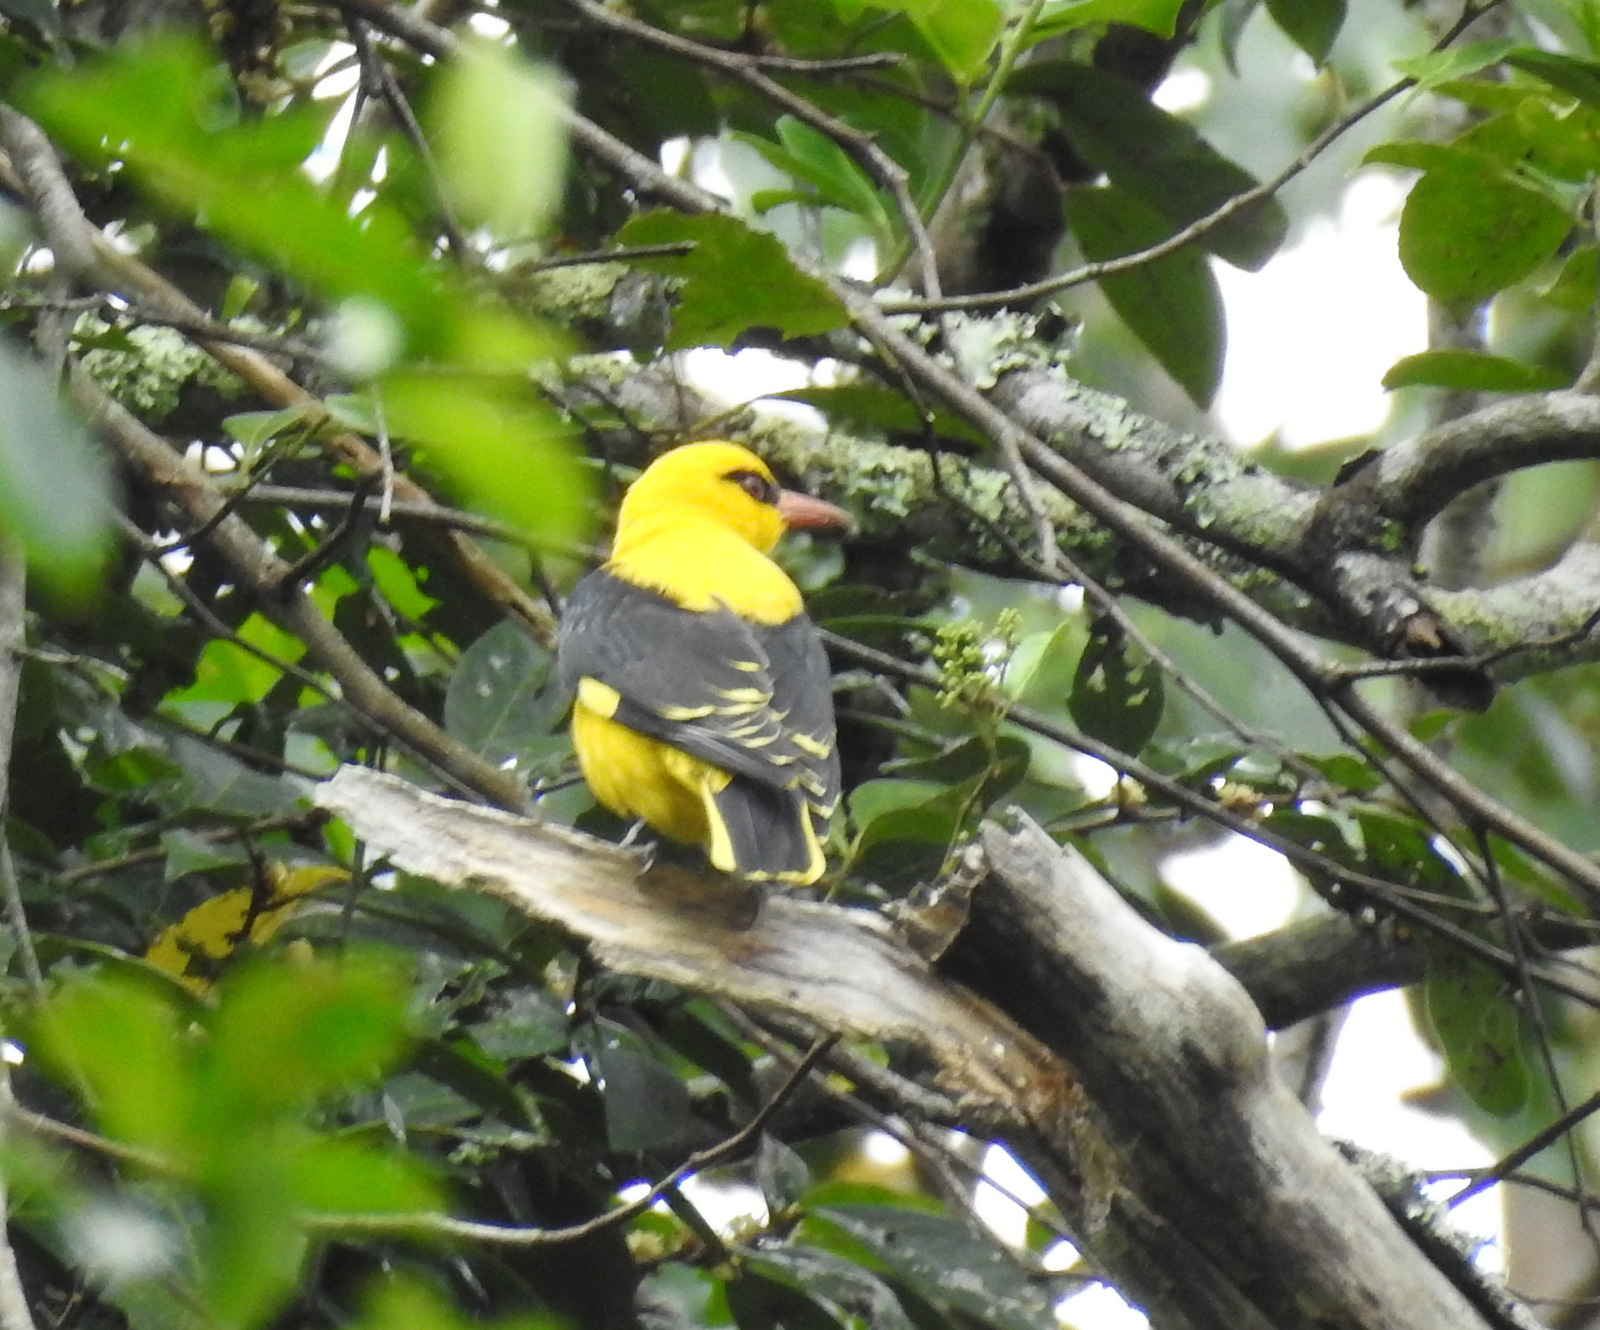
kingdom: Animalia
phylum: Chordata
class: Aves
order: Passeriformes
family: Oriolidae
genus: Oriolus
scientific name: Oriolus kundoo
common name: Indian golden oriole
